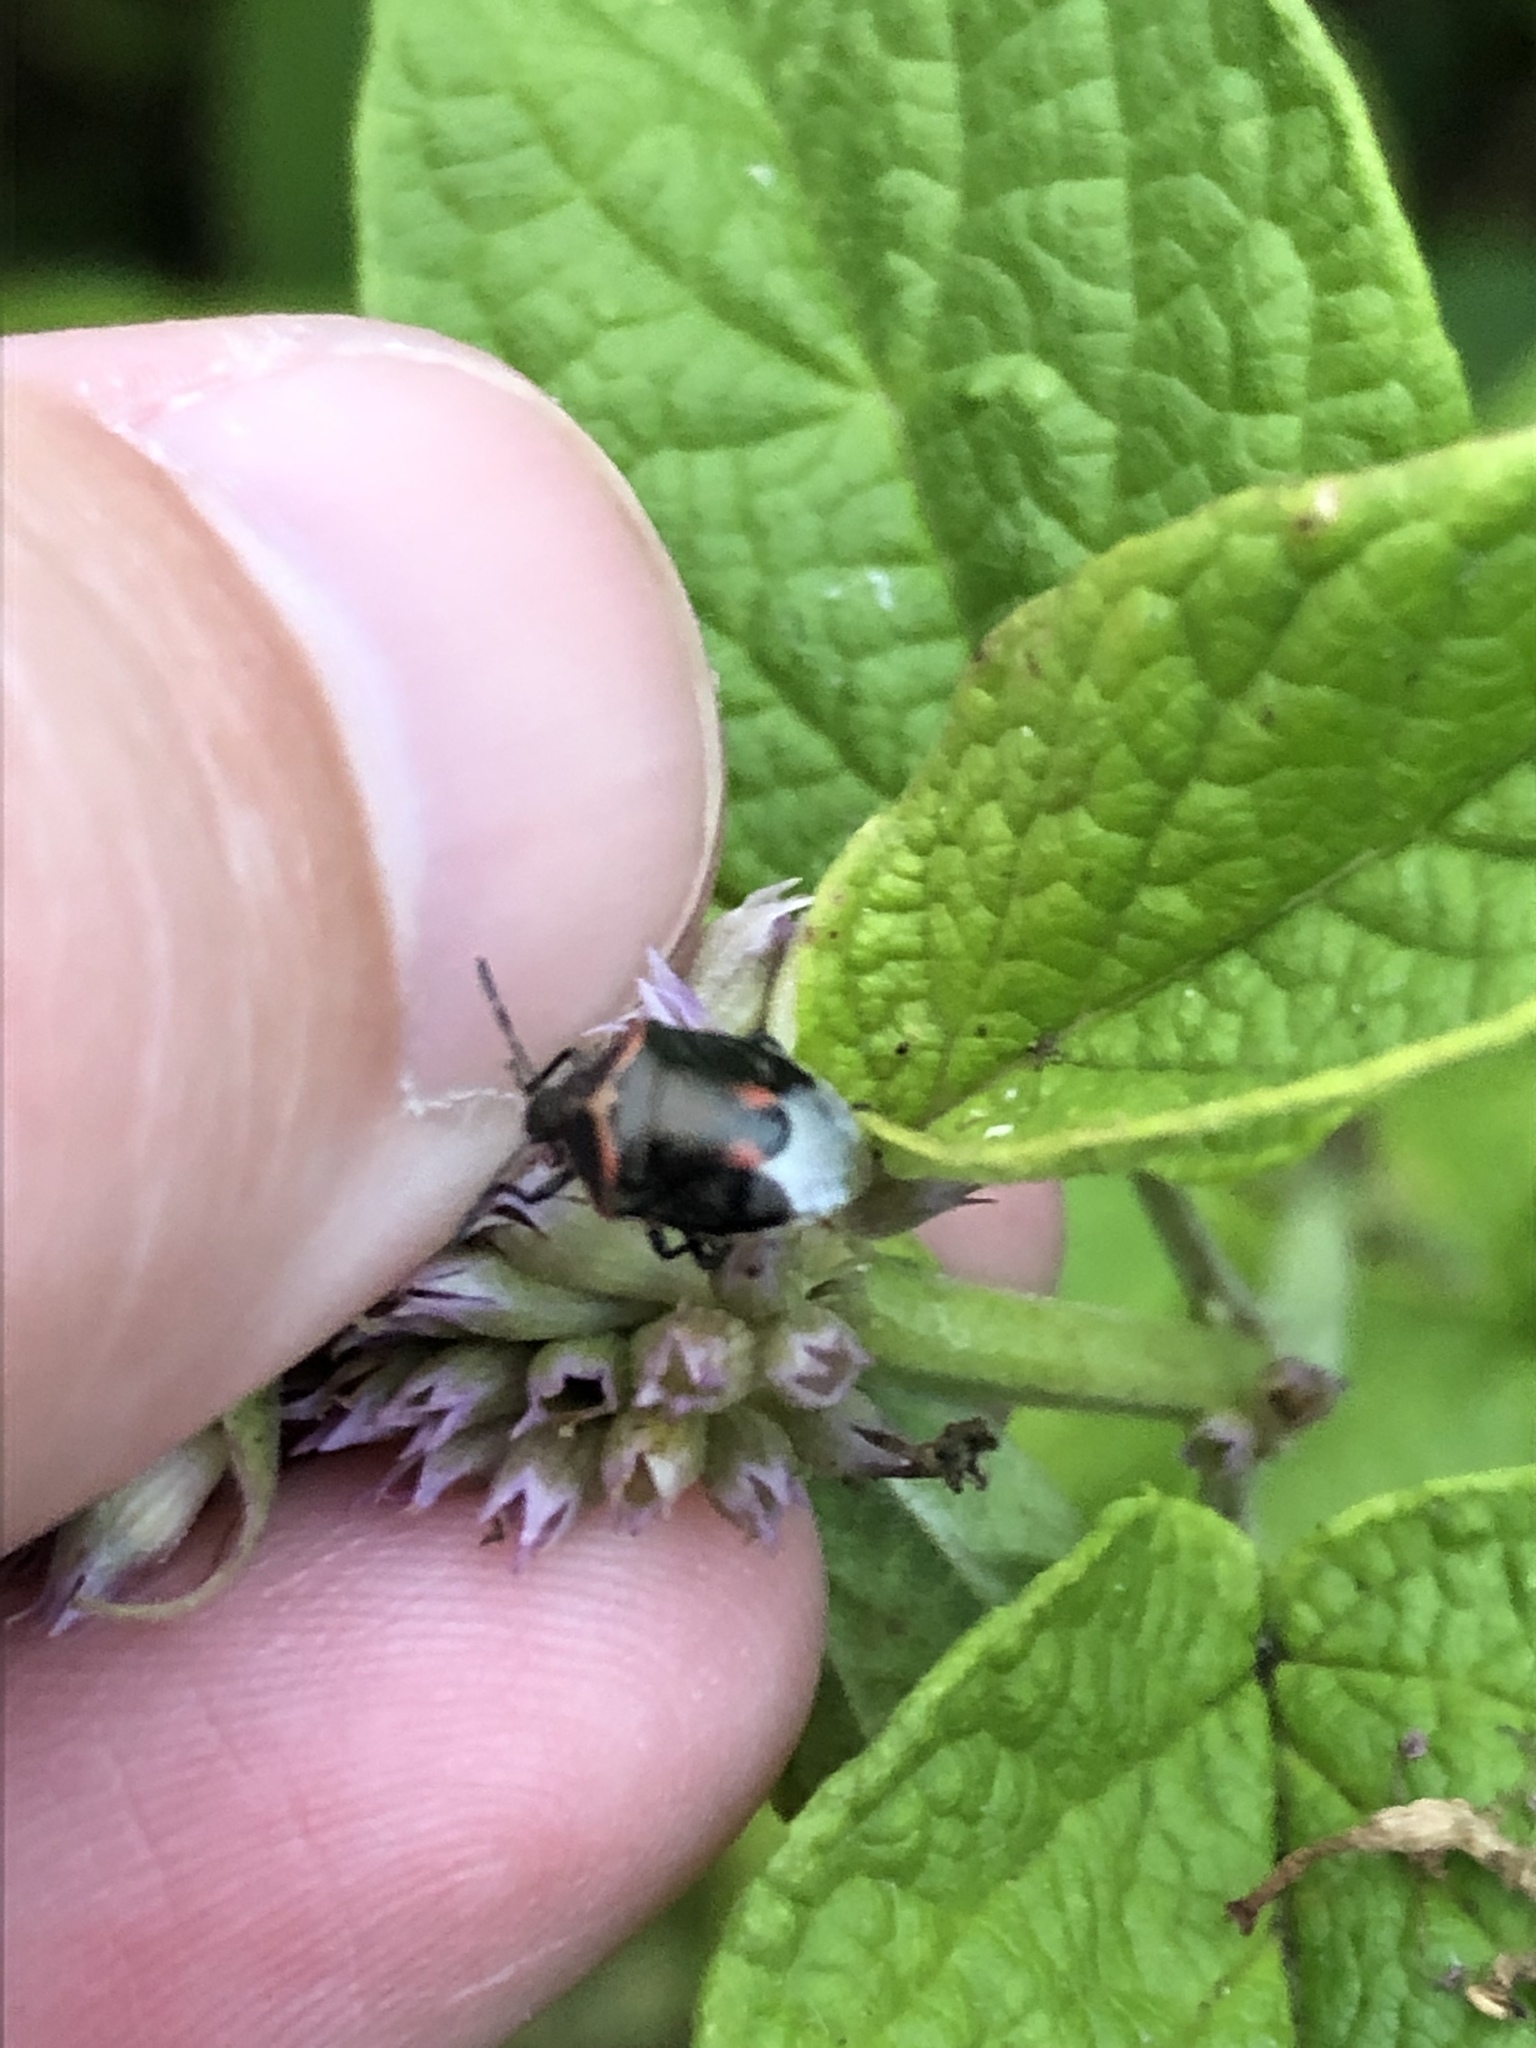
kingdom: Animalia
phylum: Arthropoda
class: Insecta
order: Hemiptera
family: Pentatomidae
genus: Cosmopepla
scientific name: Cosmopepla lintneriana
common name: Twice-stabbed stink bug
